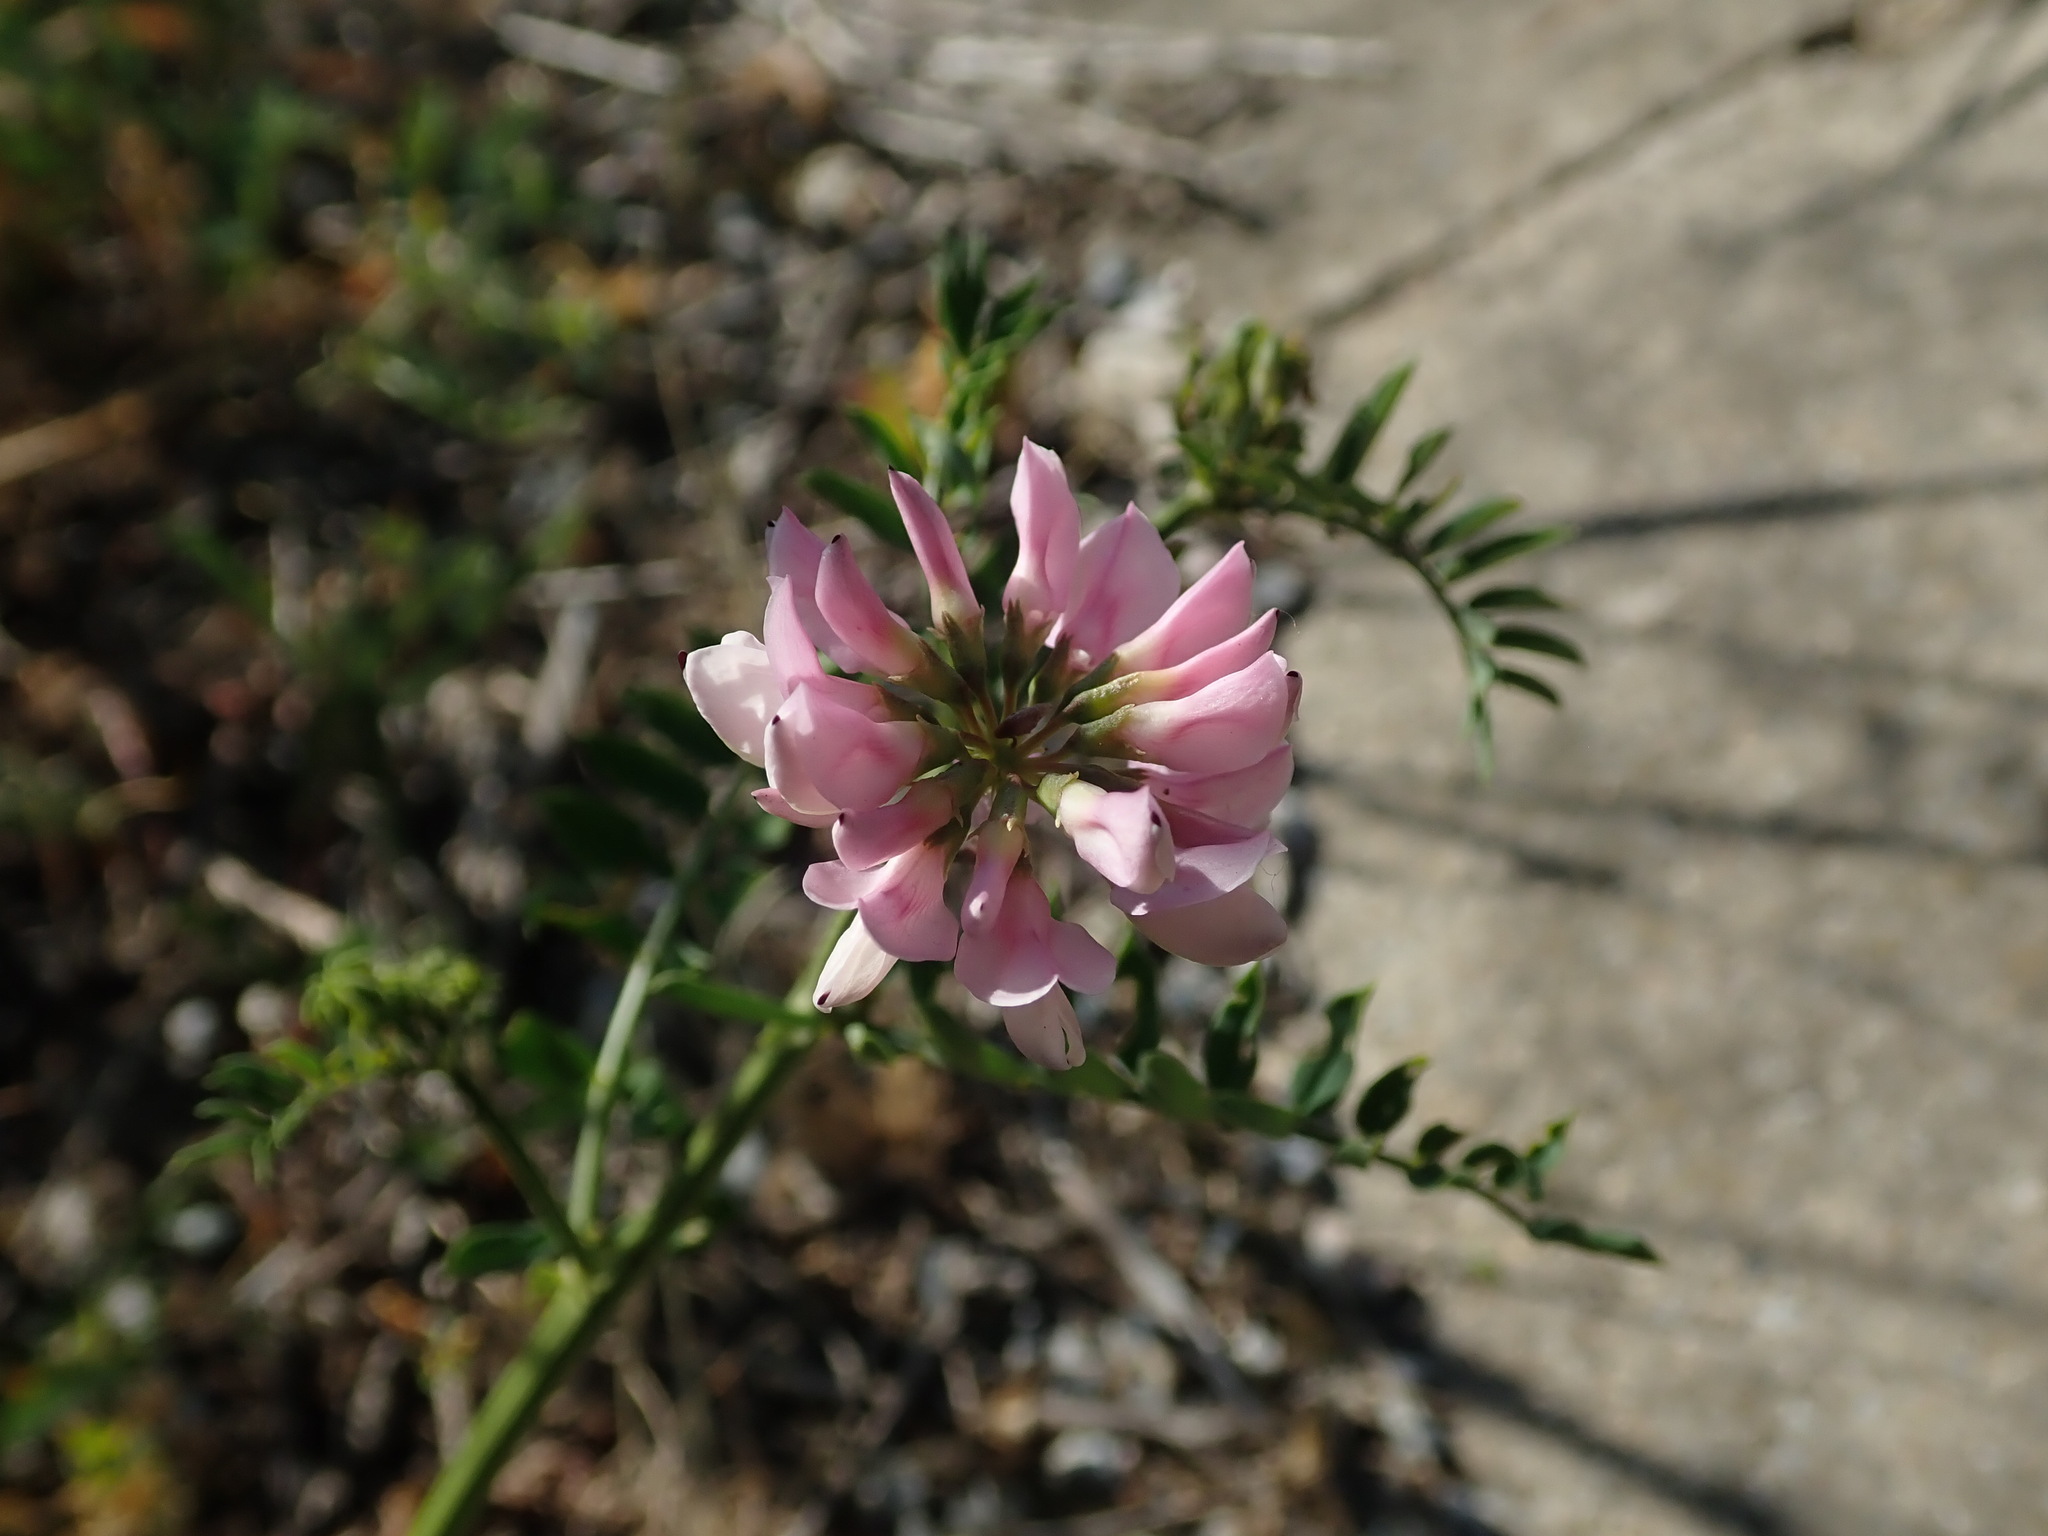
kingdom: Plantae
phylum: Tracheophyta
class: Magnoliopsida
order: Fabales
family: Fabaceae
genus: Coronilla
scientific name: Coronilla varia
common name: Crownvetch
